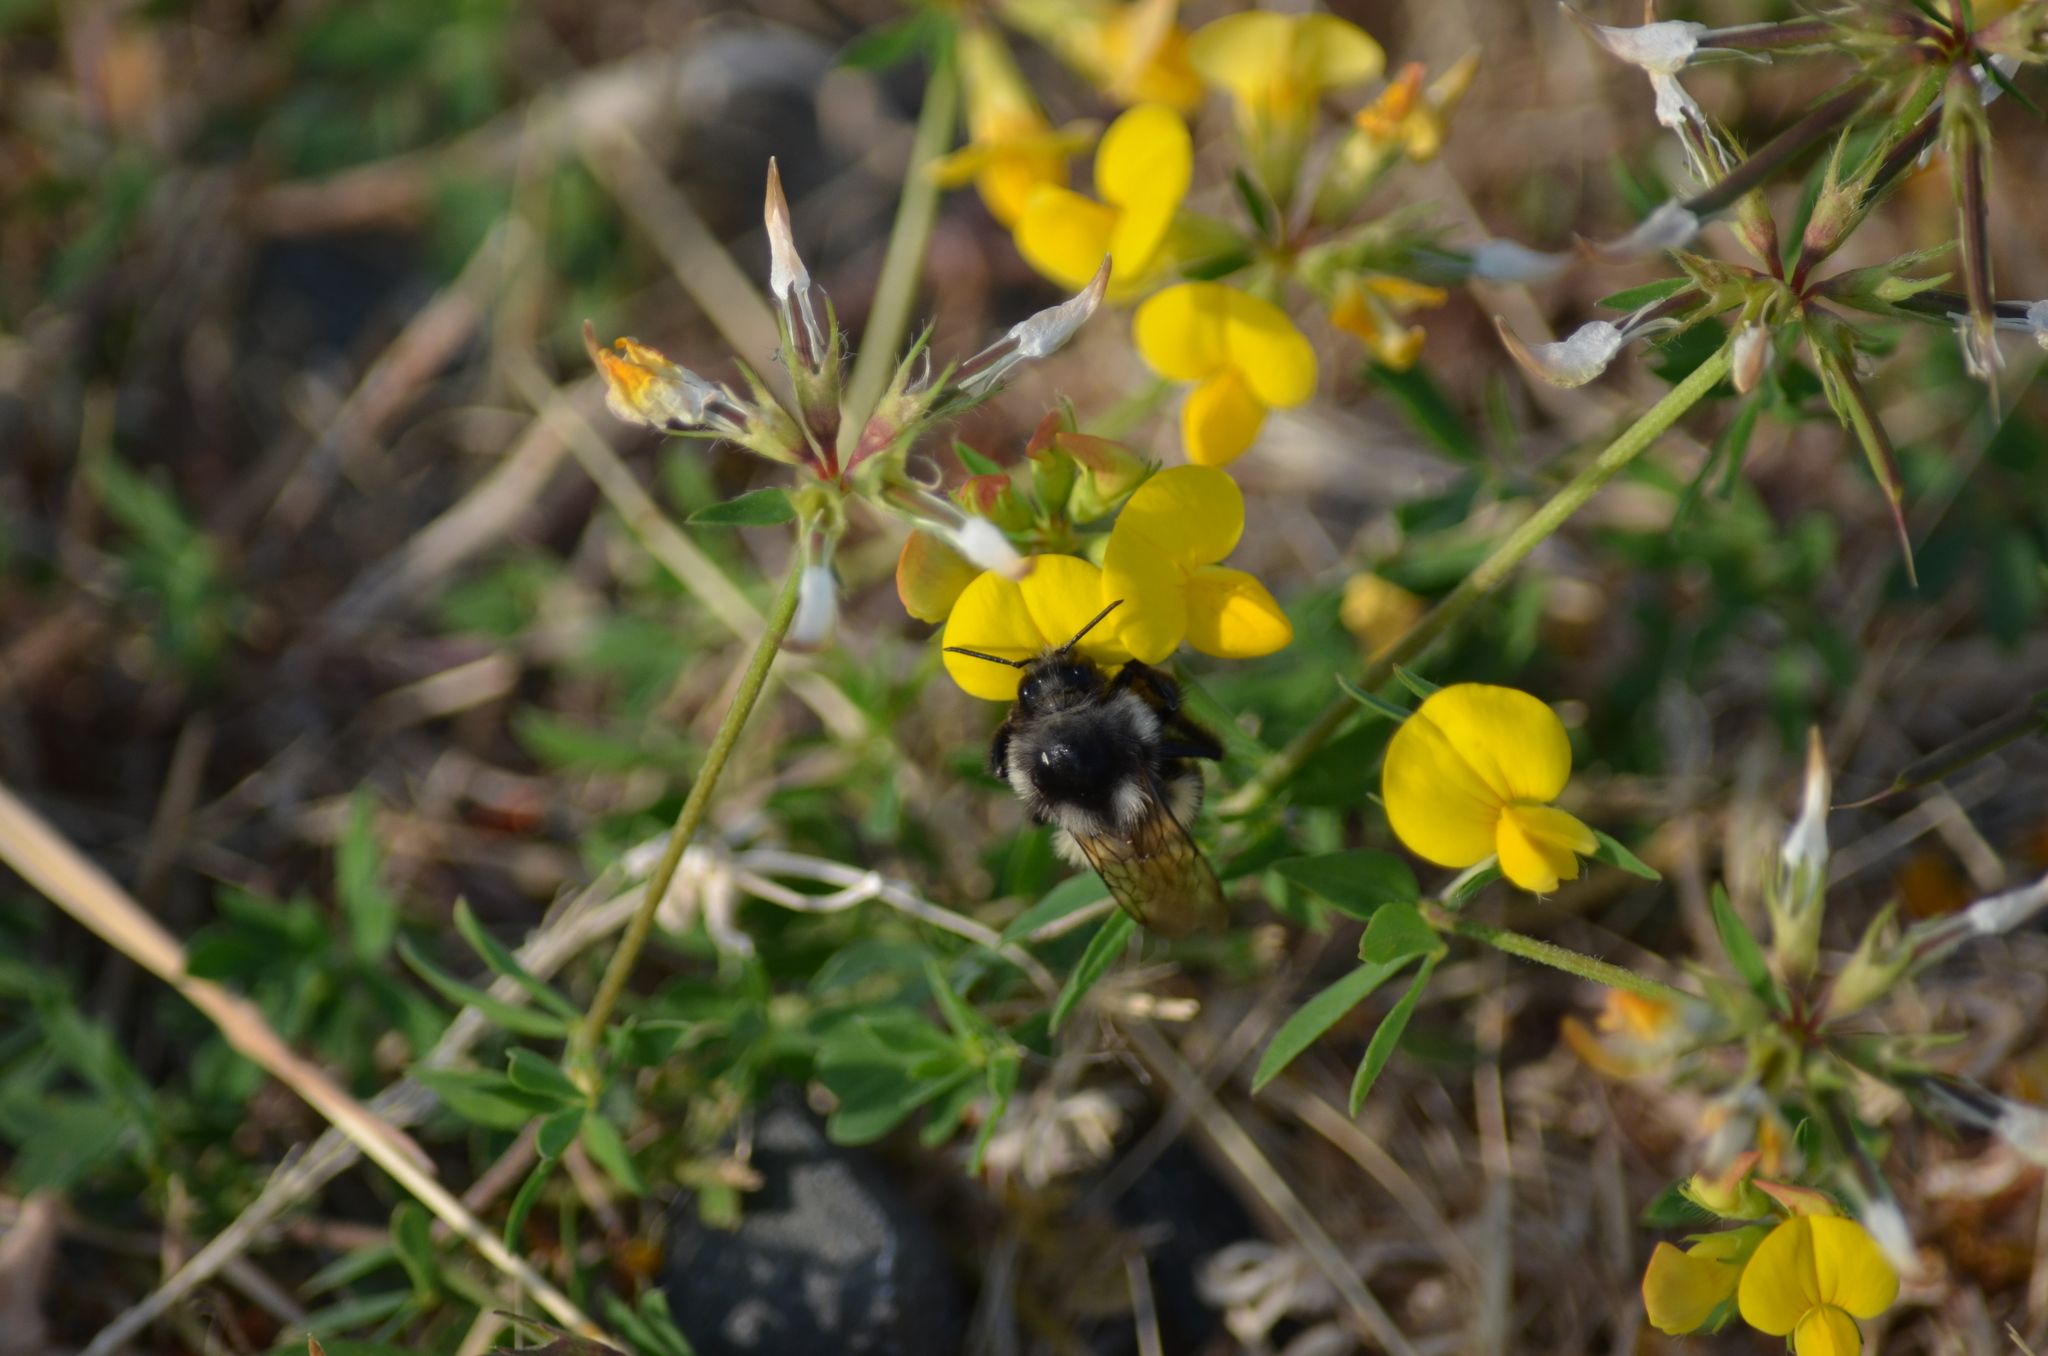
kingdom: Animalia
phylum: Arthropoda
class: Insecta
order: Hymenoptera
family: Apidae
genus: Bombus
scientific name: Bombus vancouverensis
